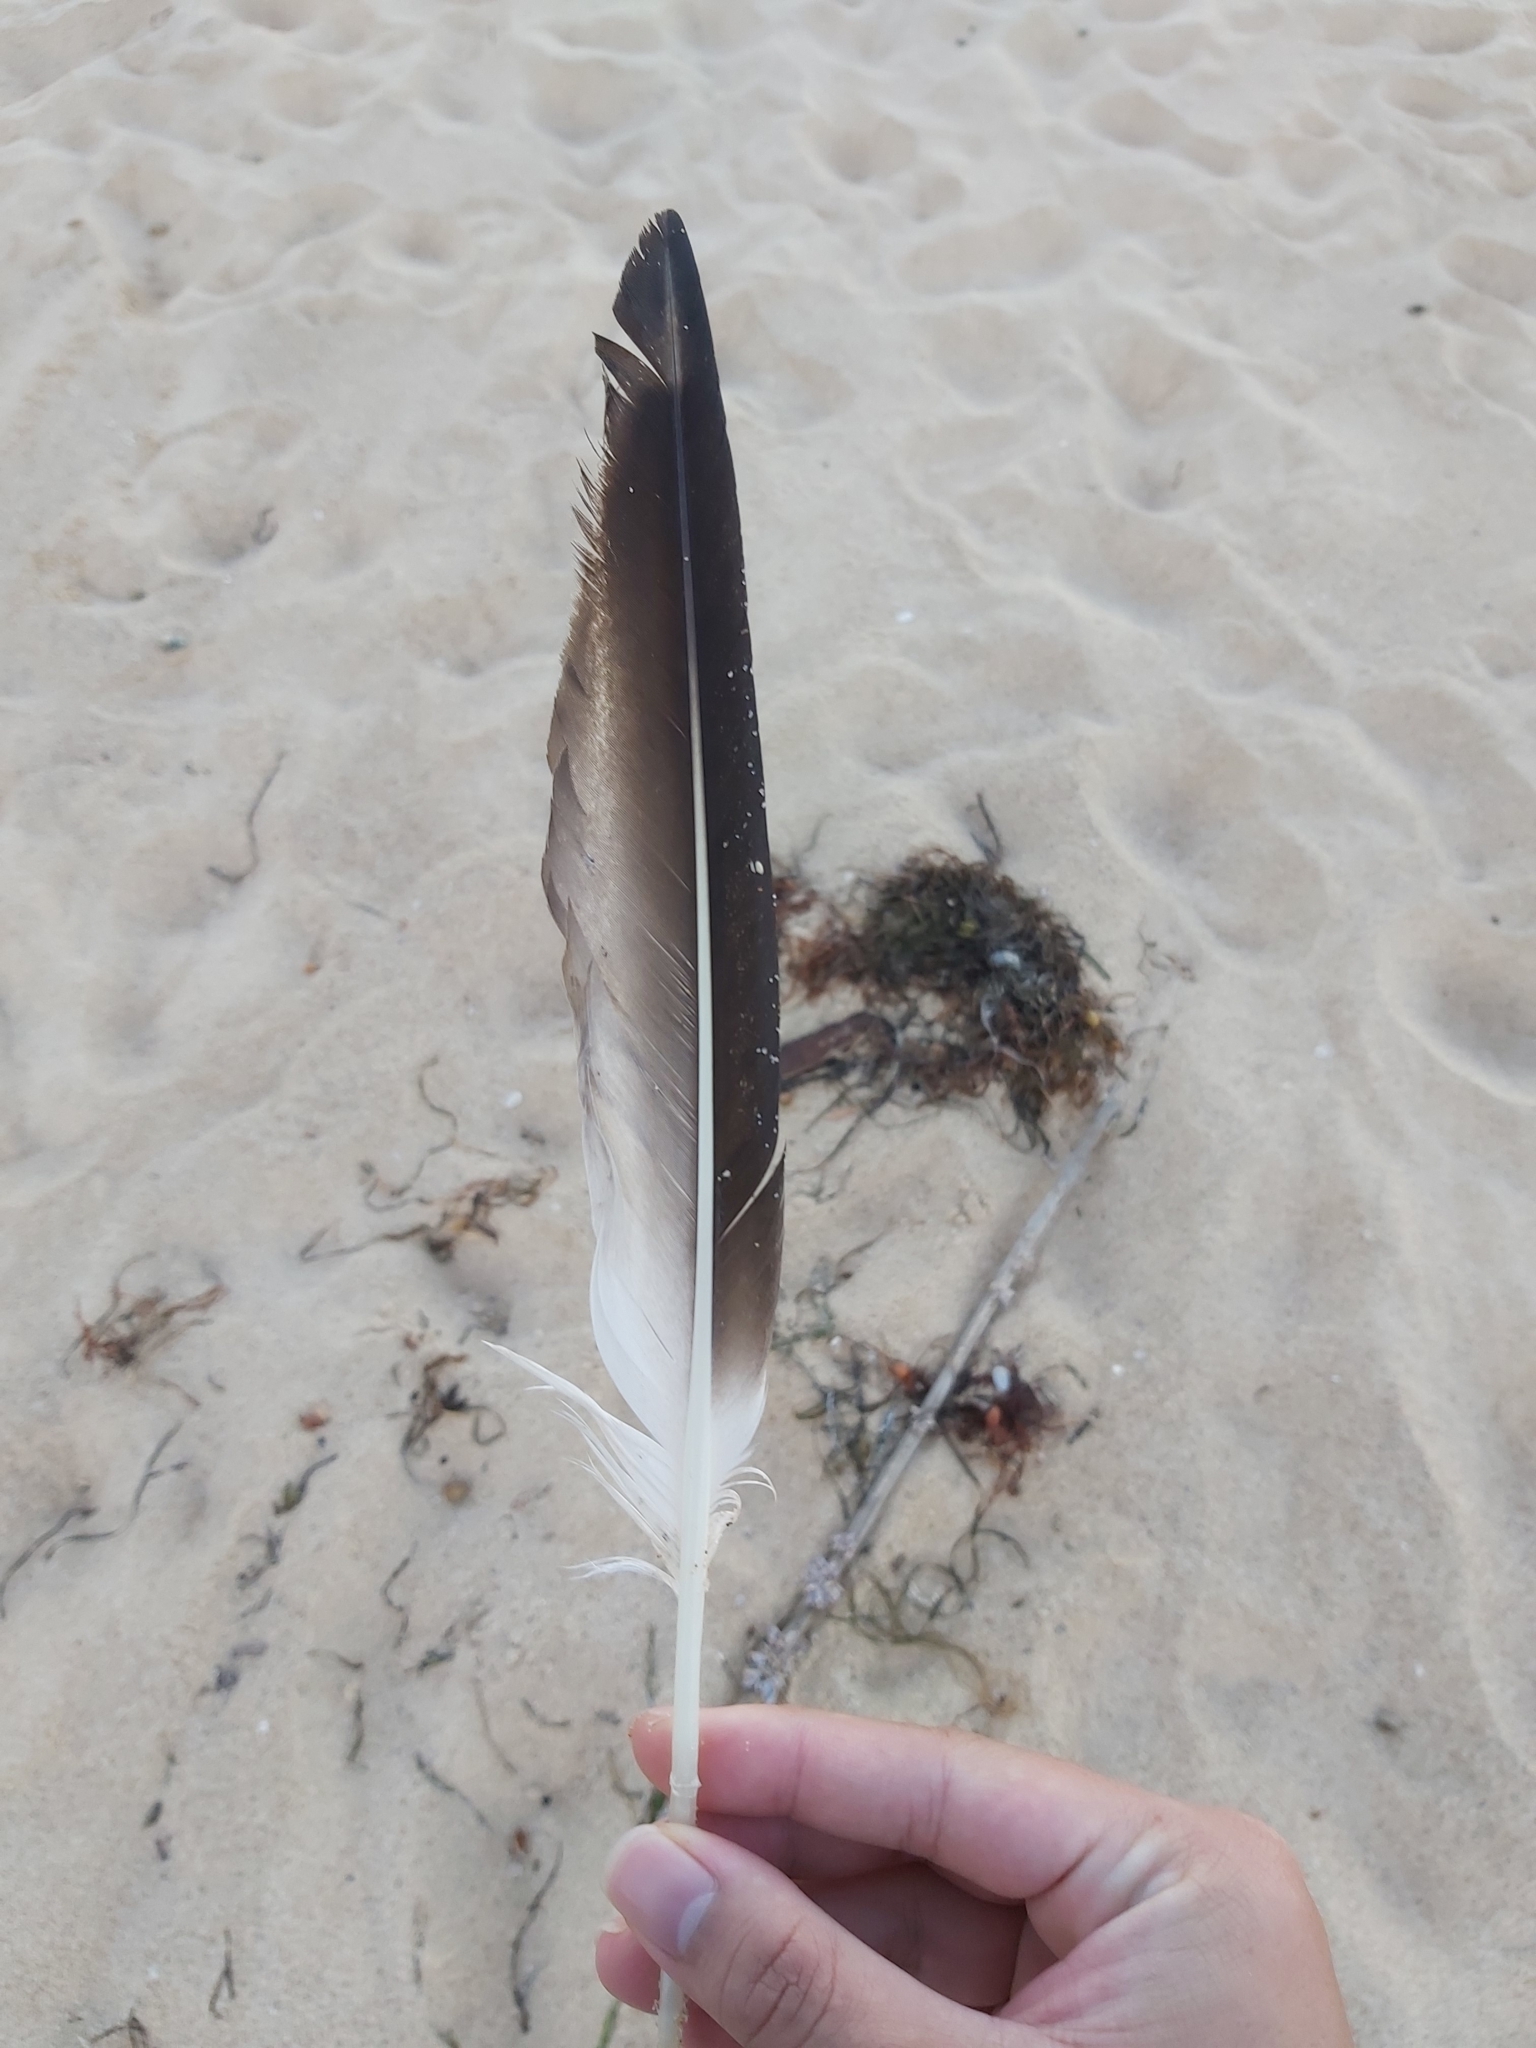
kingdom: Animalia
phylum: Chordata
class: Aves
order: Suliformes
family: Sulidae
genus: Morus
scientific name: Morus serrator
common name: Australasian gannet
